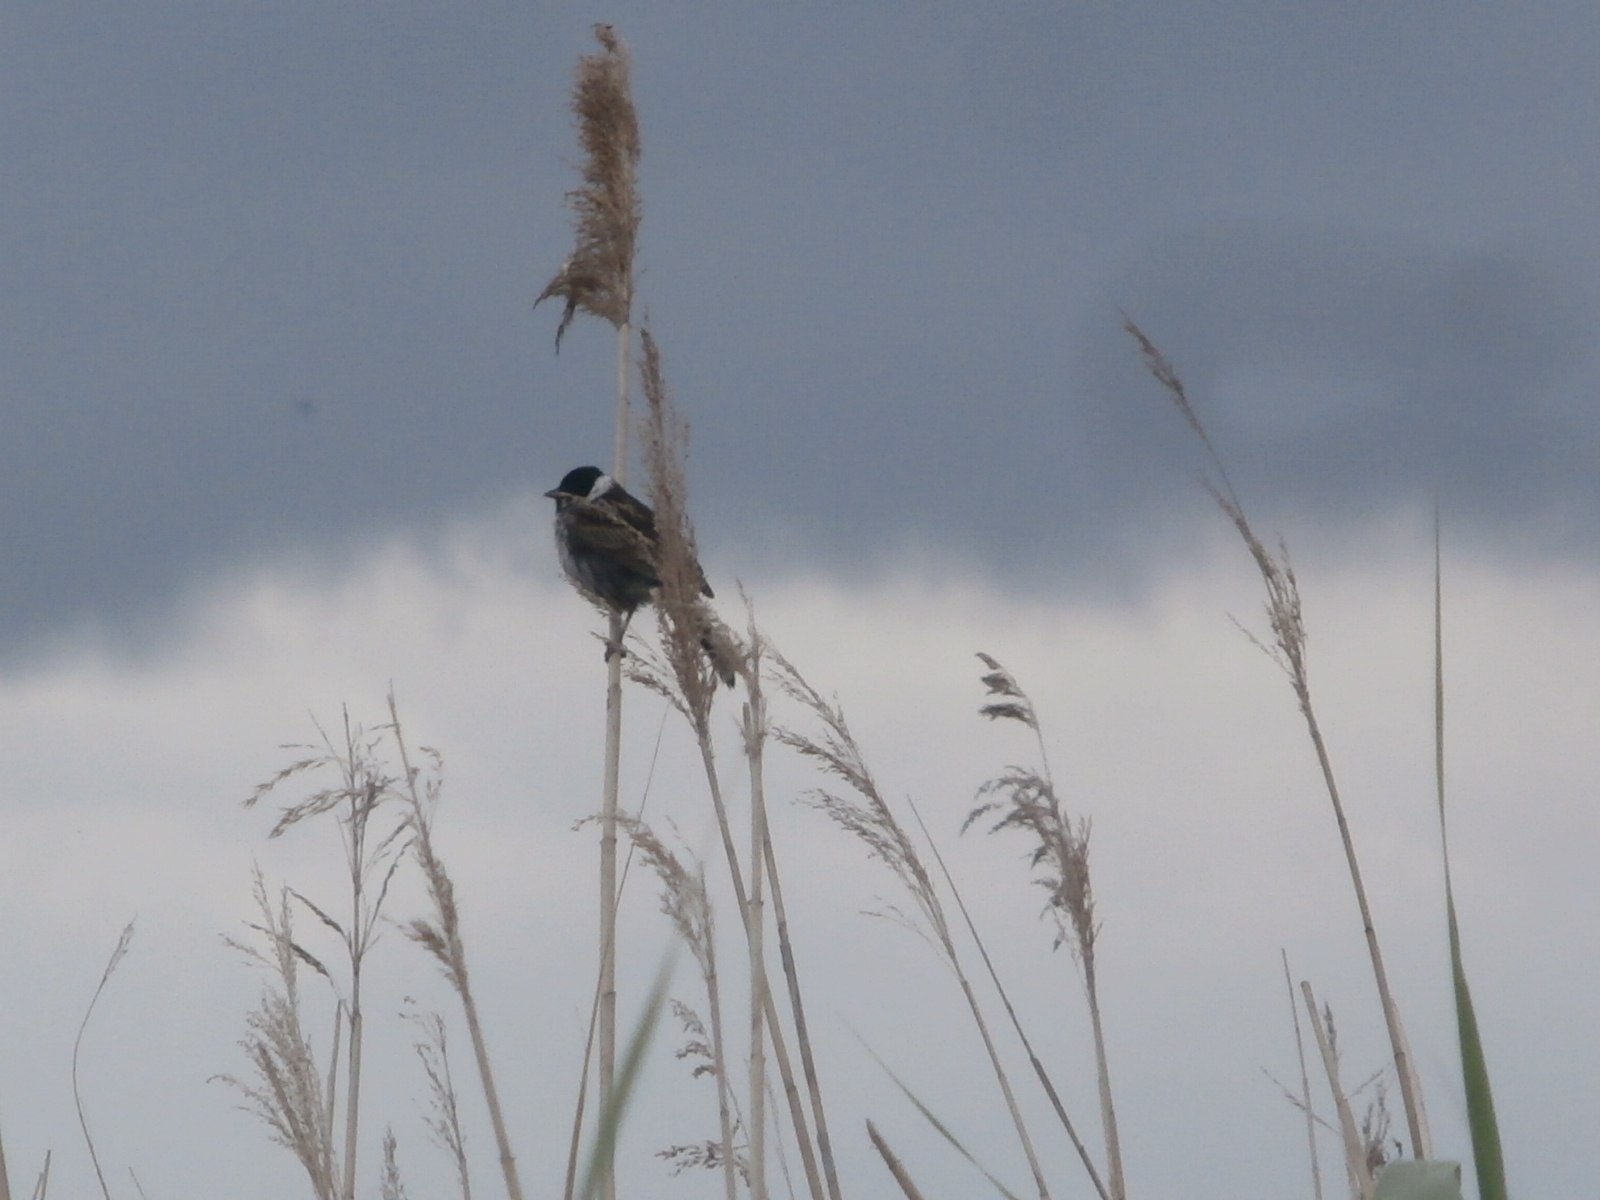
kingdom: Animalia
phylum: Chordata
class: Aves
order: Passeriformes
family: Emberizidae
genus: Emberiza
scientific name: Emberiza schoeniclus
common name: Reed bunting
